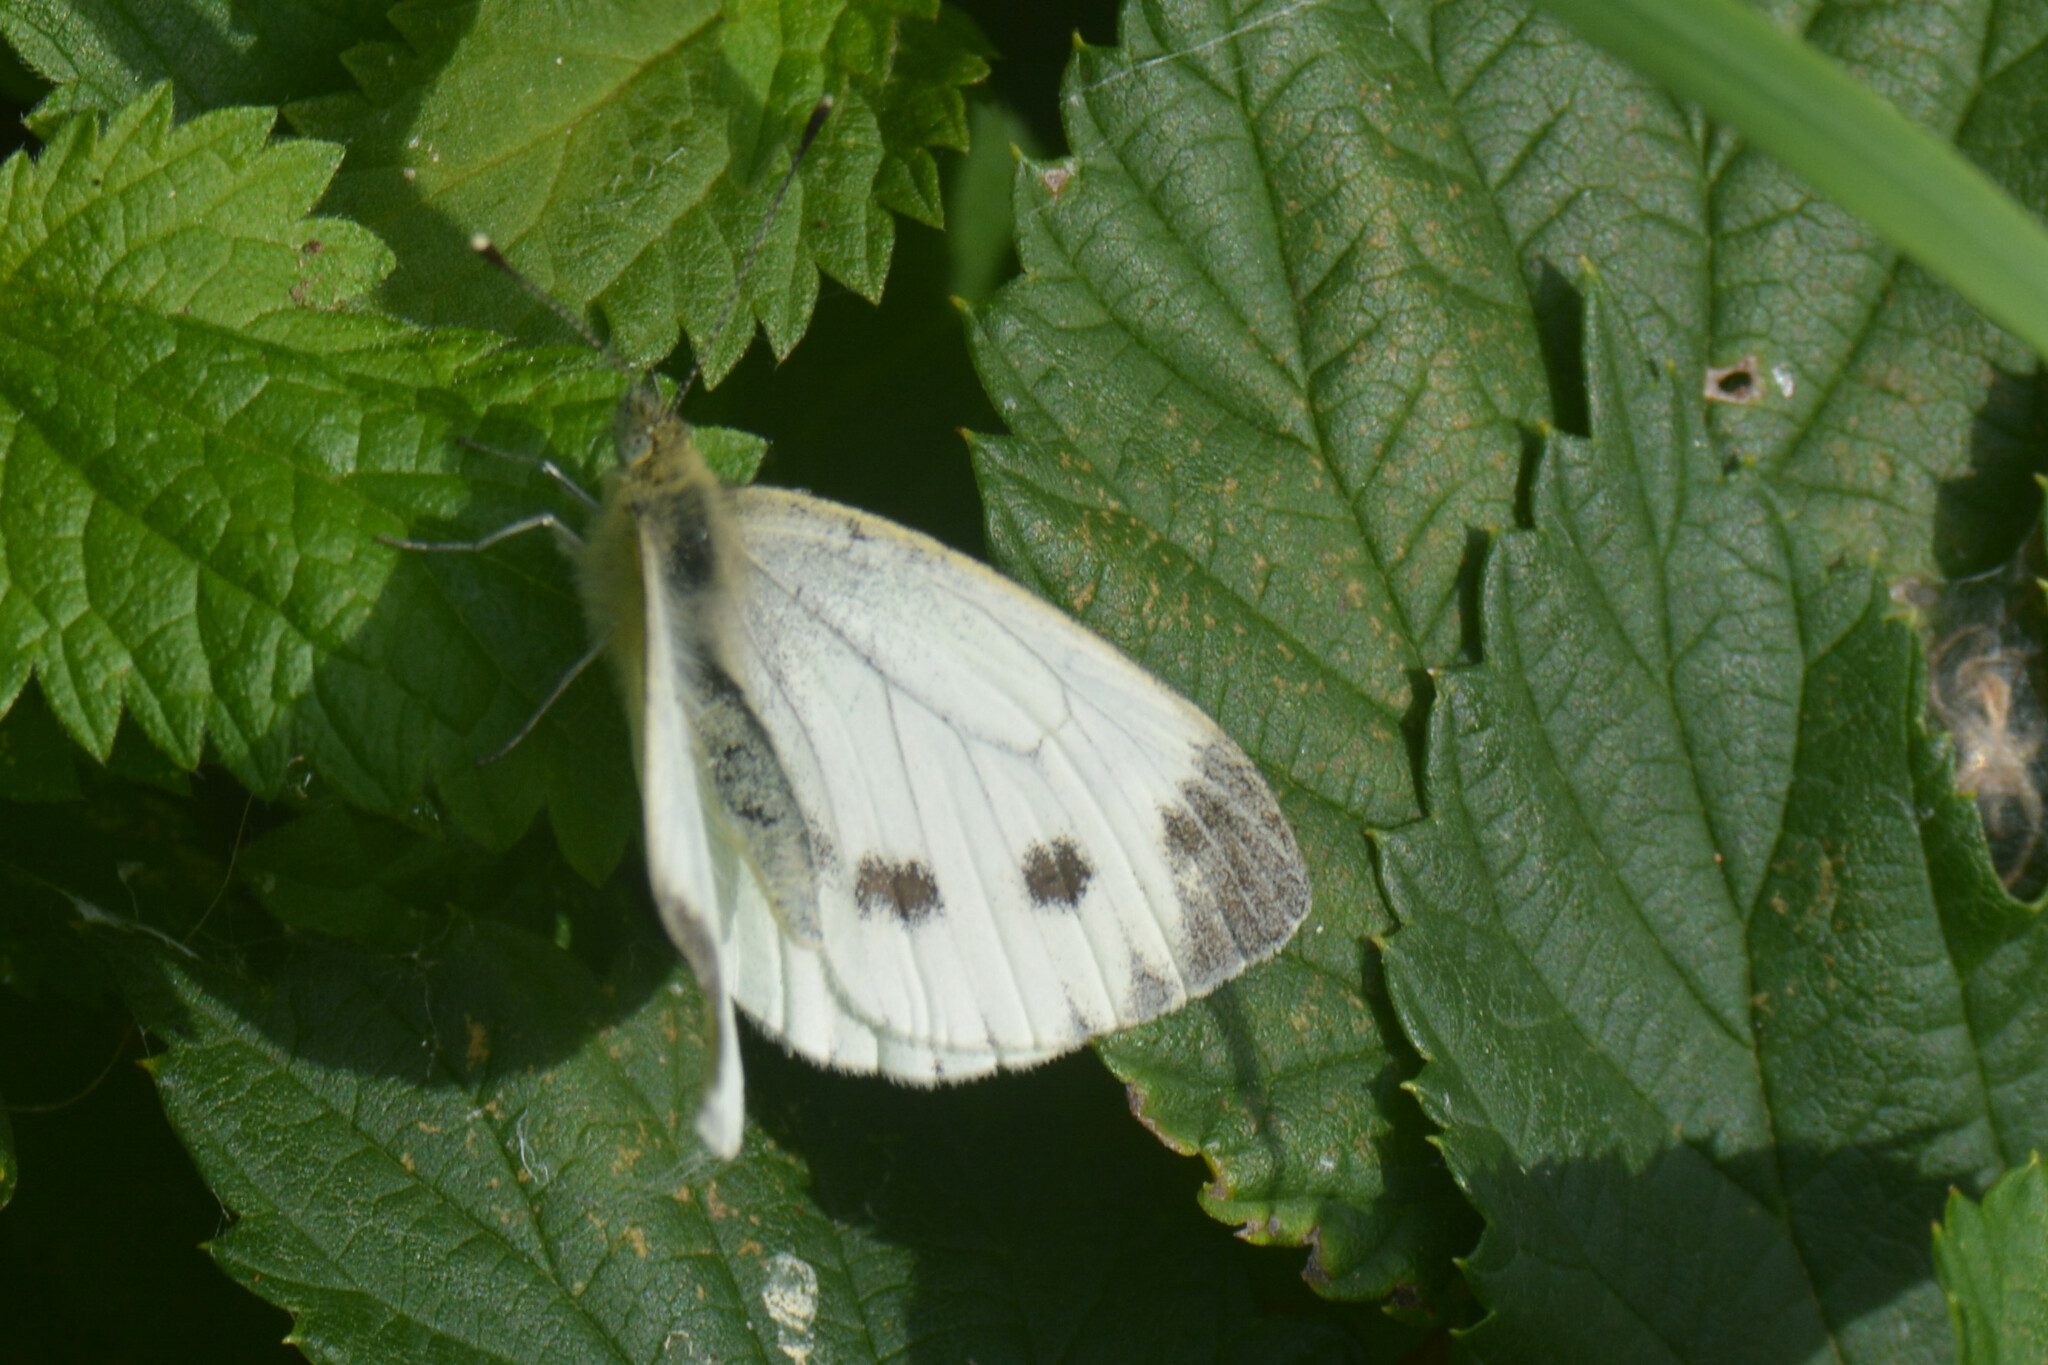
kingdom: Animalia
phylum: Arthropoda
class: Insecta
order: Lepidoptera
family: Pieridae
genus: Pieris
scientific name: Pieris napi
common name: Green-veined white
